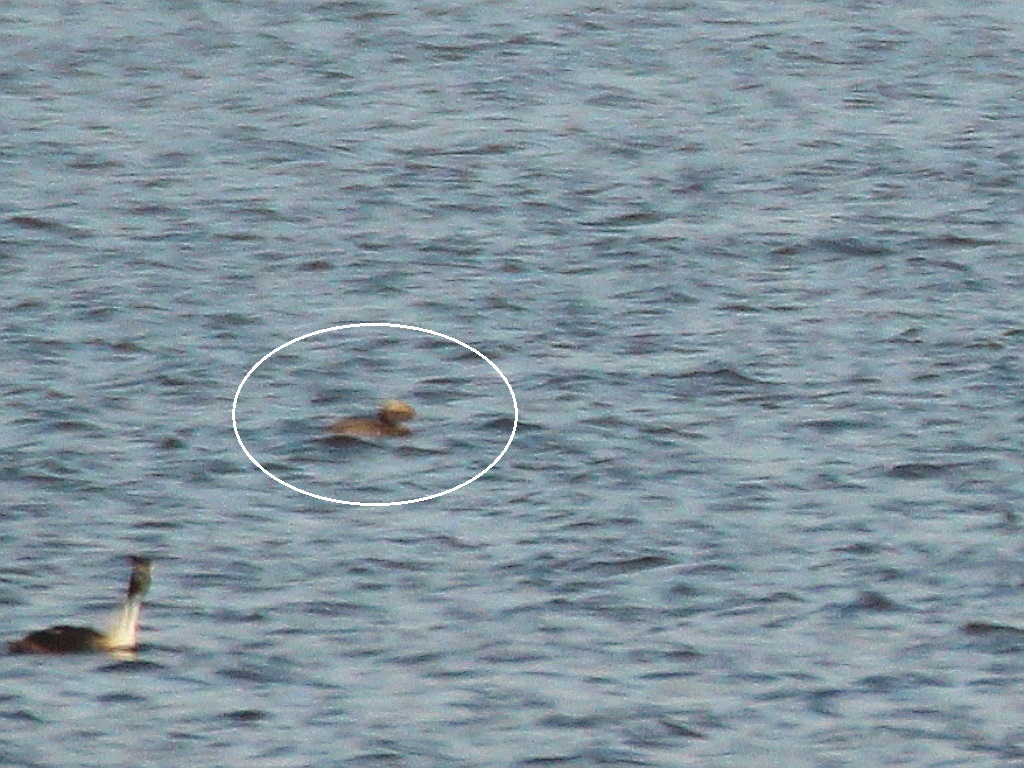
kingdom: Animalia
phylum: Chordata
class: Aves
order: Podicipediformes
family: Podicipedidae
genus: Podiceps
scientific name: Podiceps auritus
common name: Horned grebe
